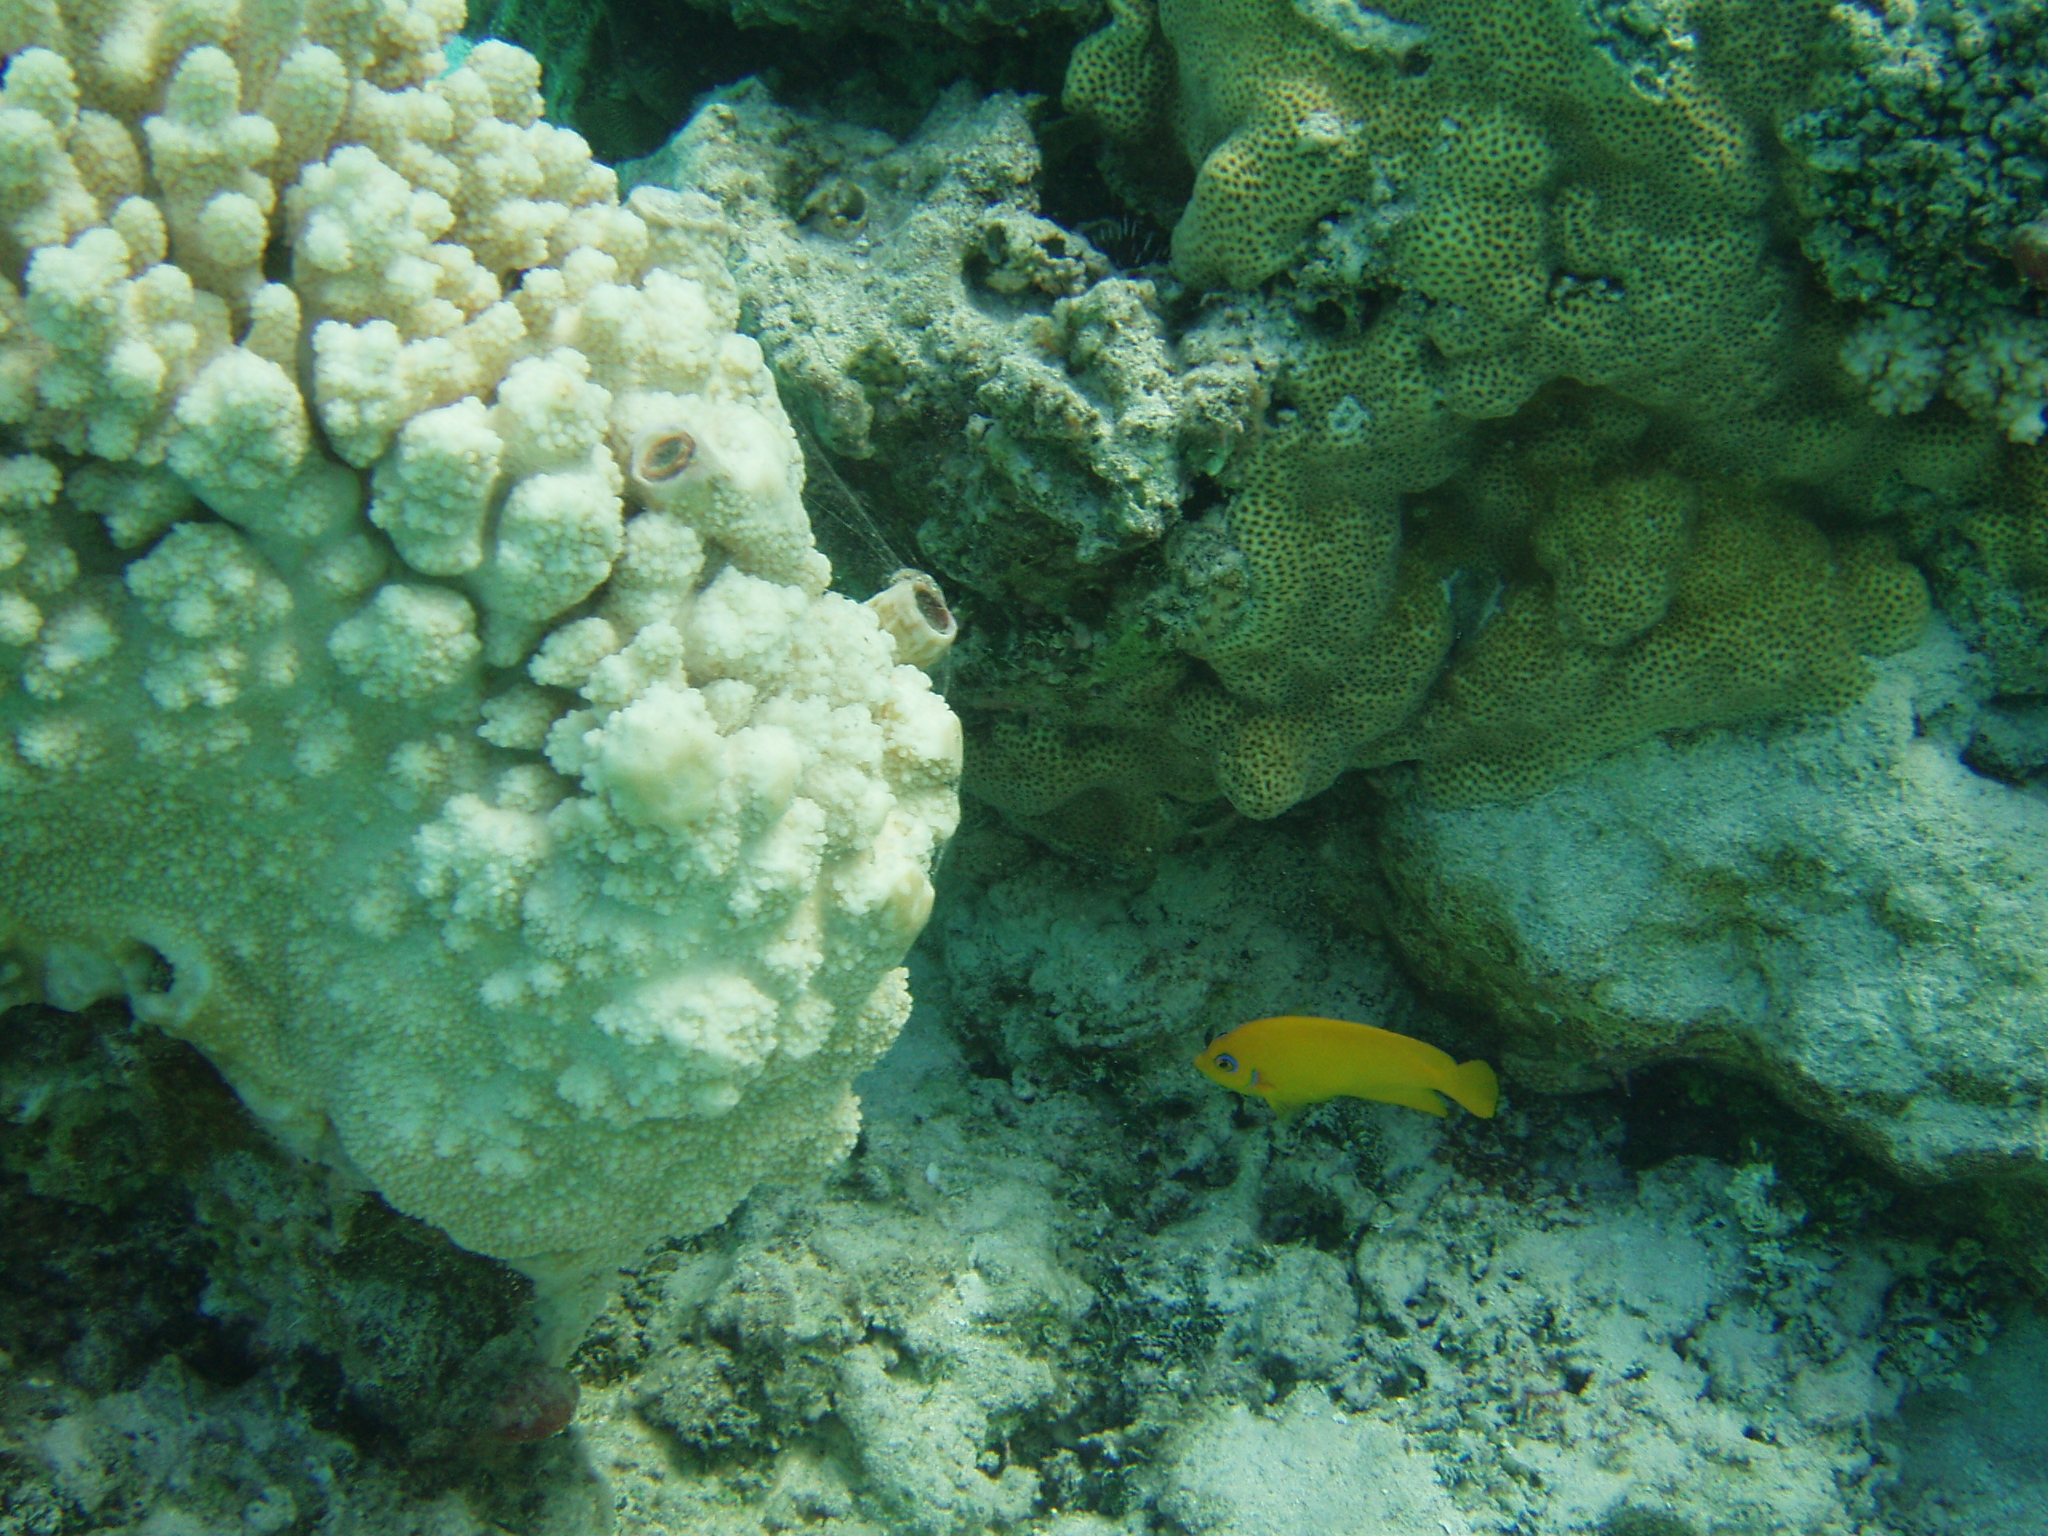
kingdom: Animalia
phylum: Chordata
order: Perciformes
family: Pomacanthidae
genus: Centropyge
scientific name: Centropyge flavissima
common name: Lemonpeel angelfish
